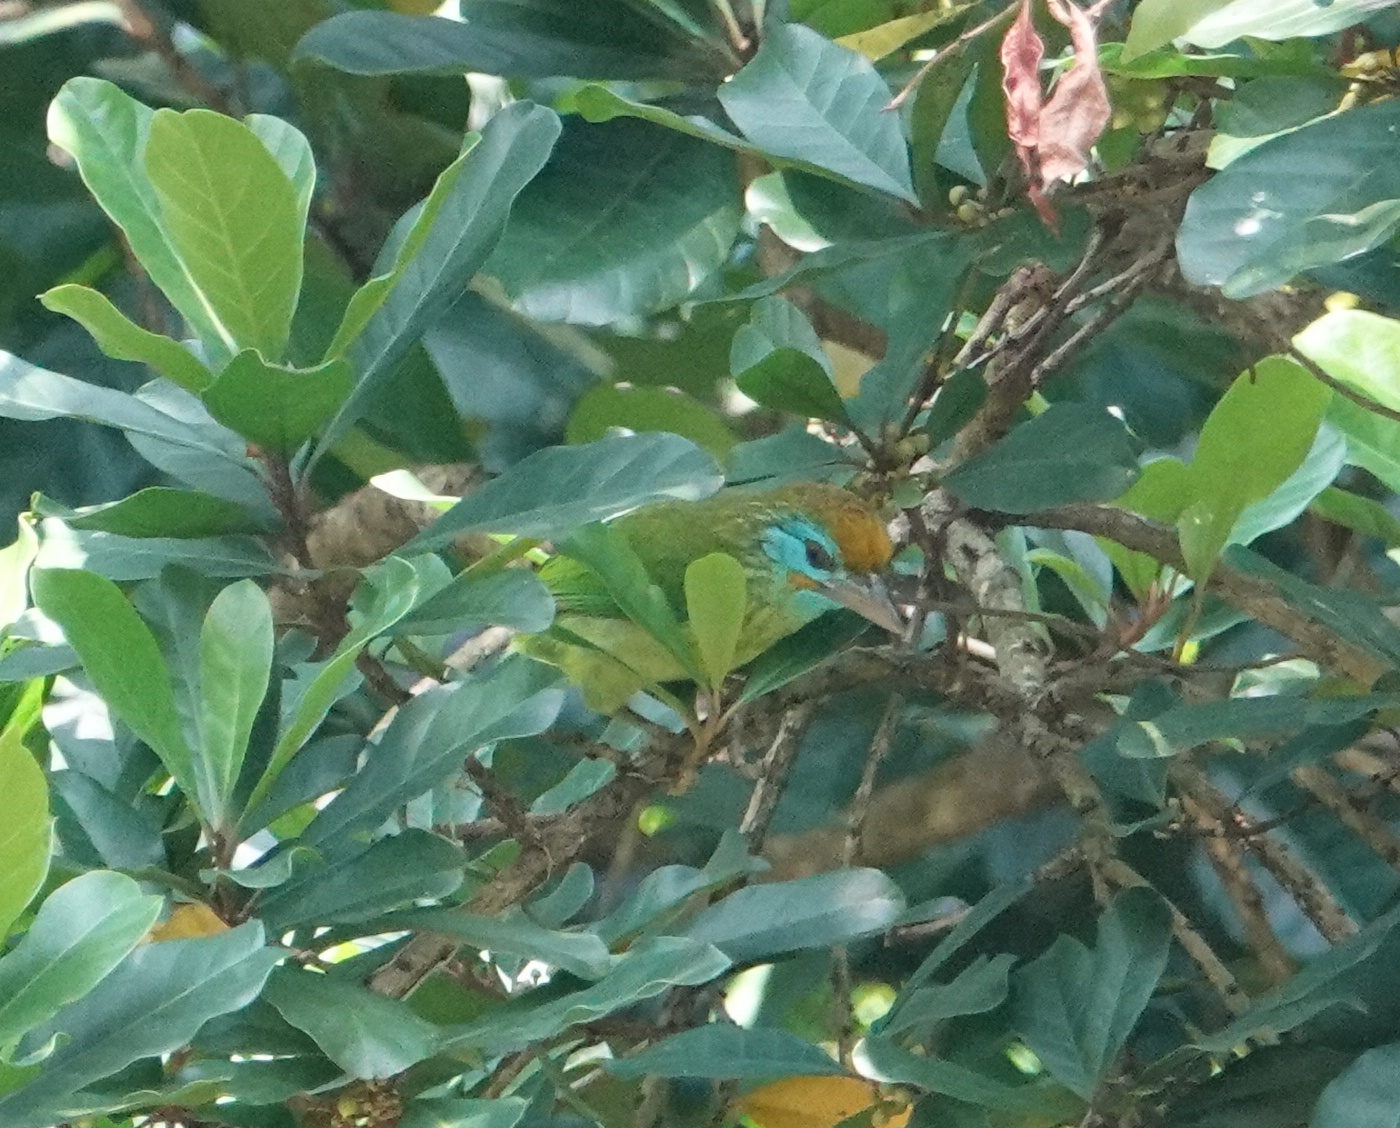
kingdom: Animalia
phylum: Chordata
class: Aves
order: Piciformes
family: Megalaimidae
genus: Psilopogon
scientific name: Psilopogon flavifrons
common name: Yellow-fronted barbet
